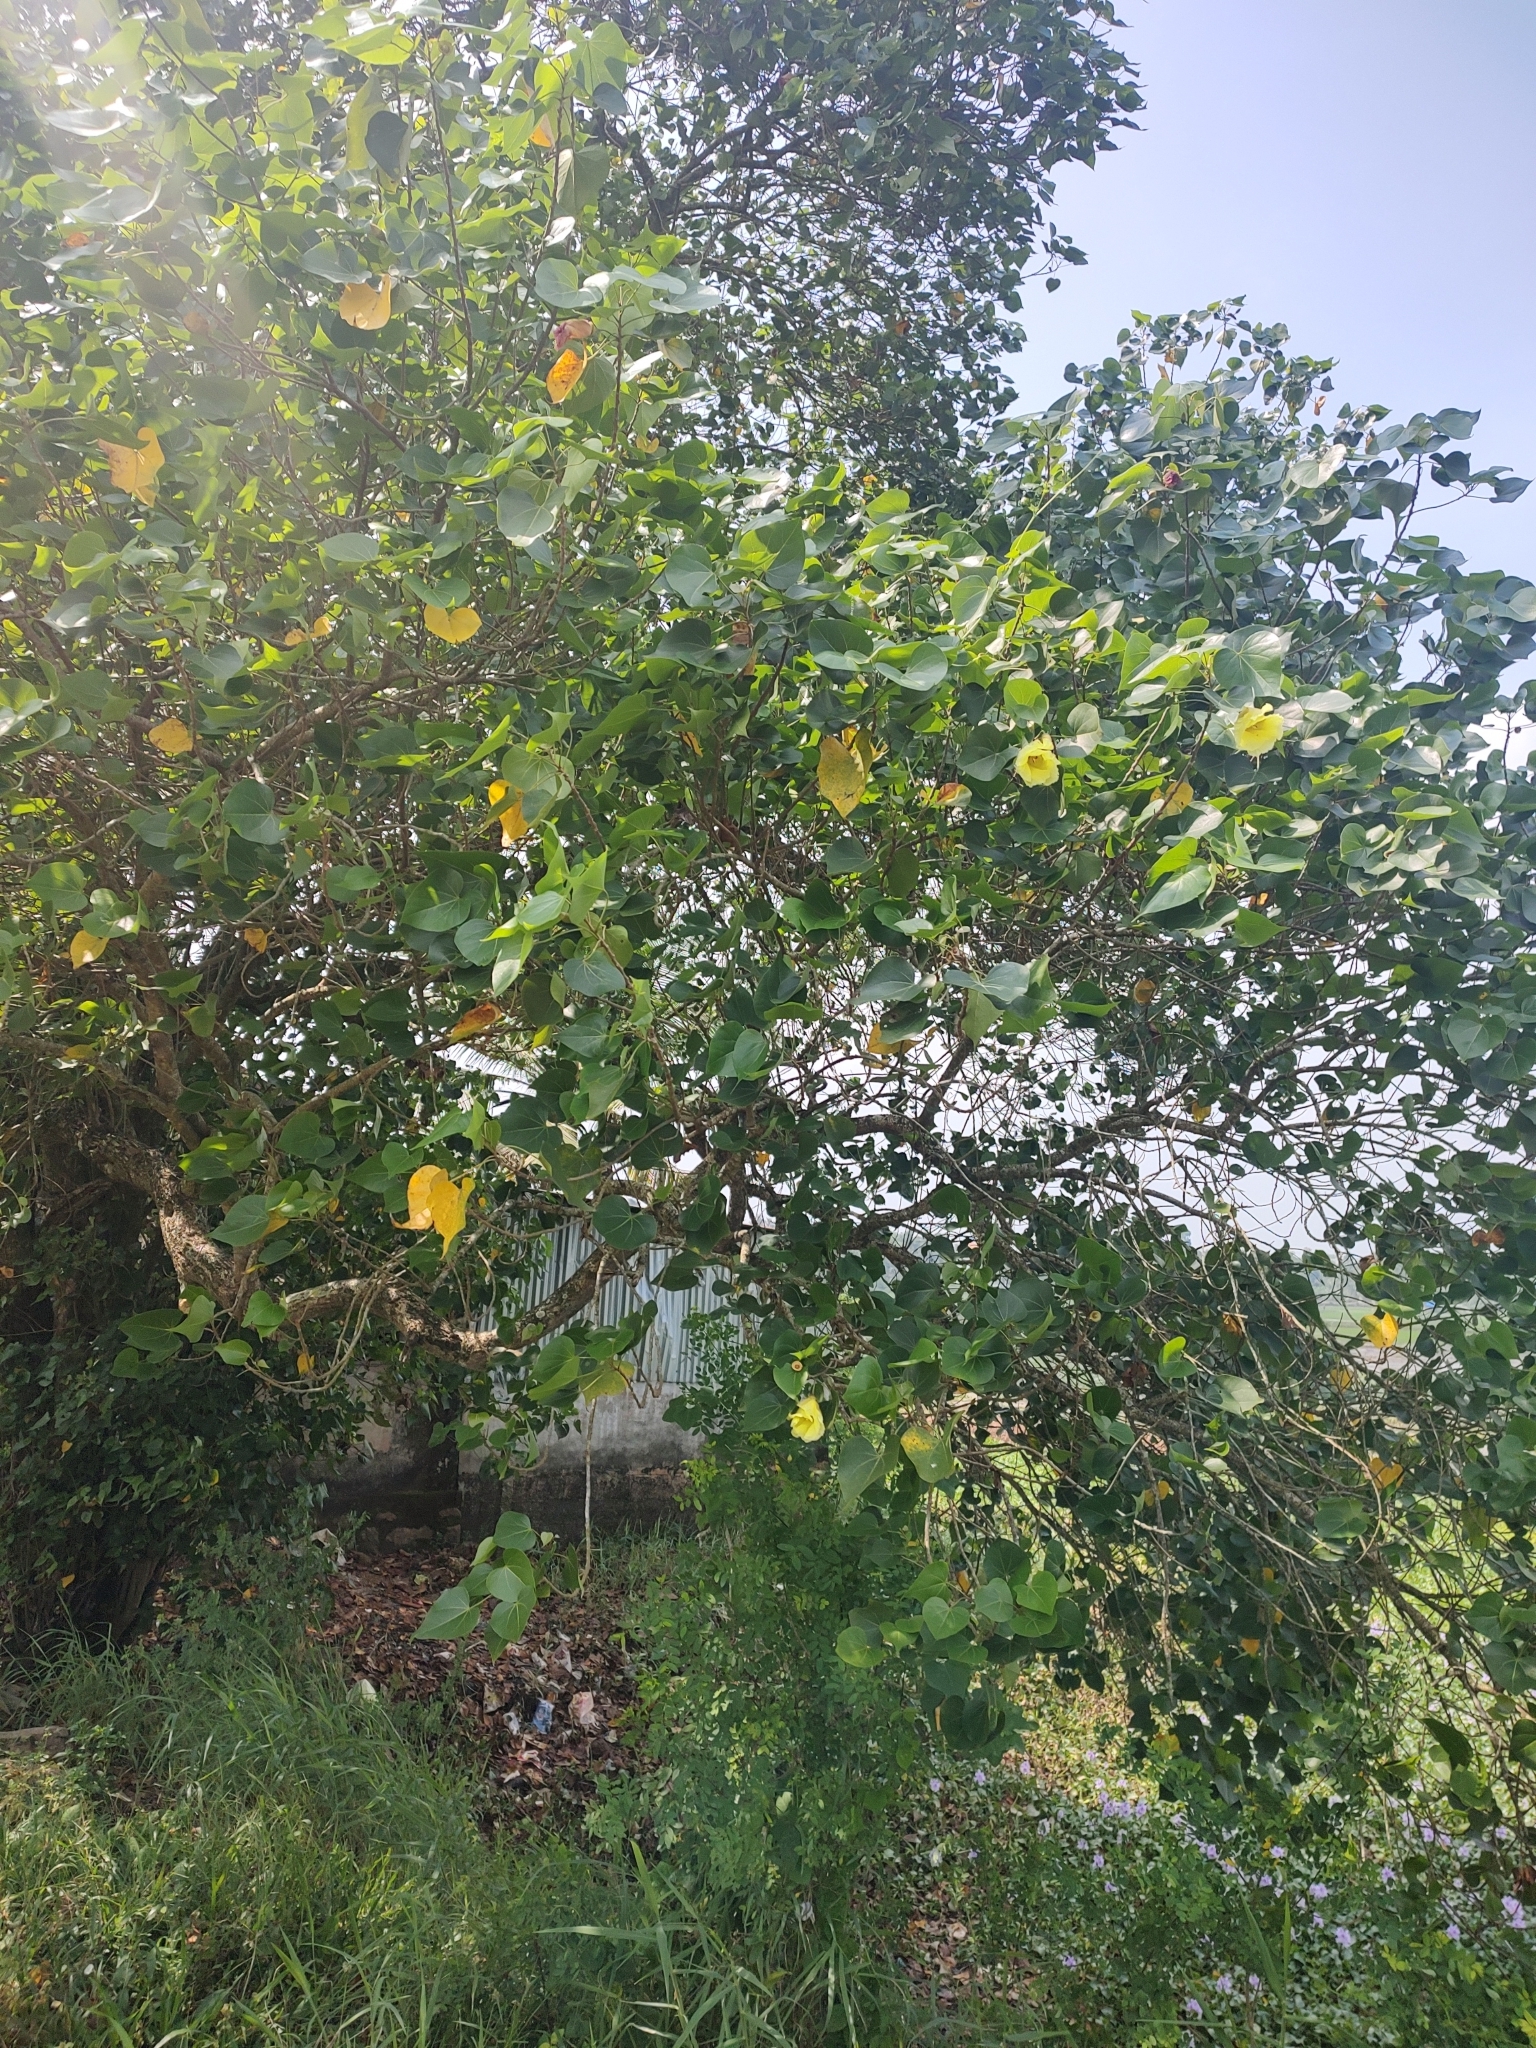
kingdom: Plantae
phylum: Tracheophyta
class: Magnoliopsida
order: Malvales
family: Malvaceae
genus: Thespesia
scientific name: Thespesia populnea
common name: Seaside mahoe
